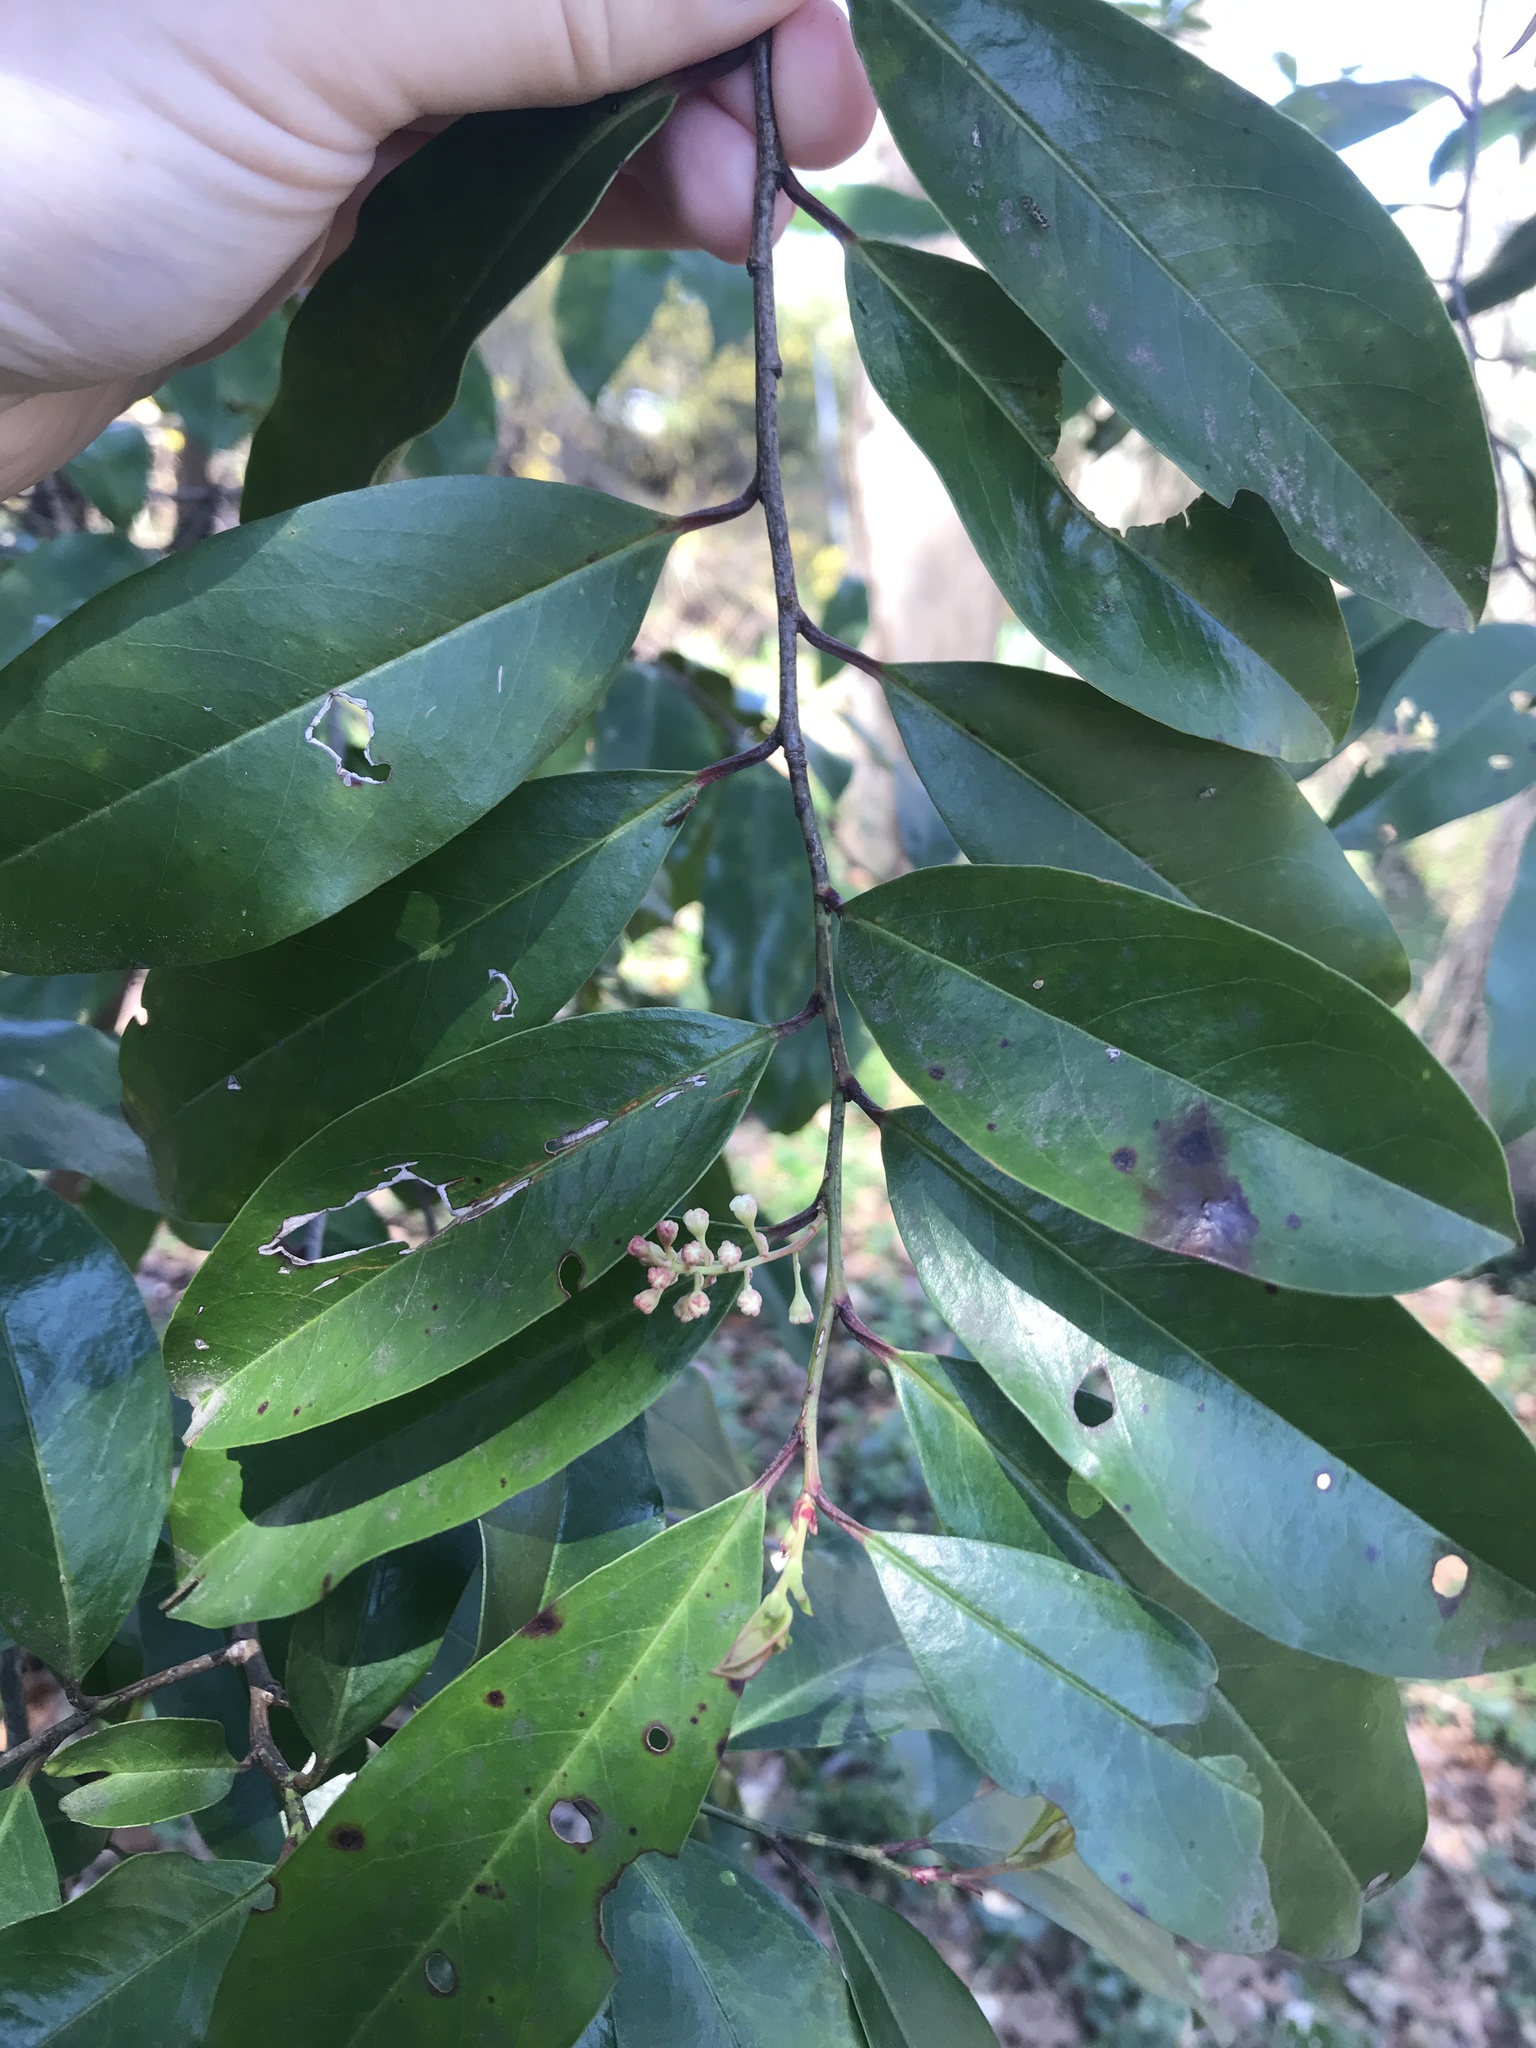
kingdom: Plantae
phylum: Tracheophyta
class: Magnoliopsida
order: Rosales
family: Rosaceae
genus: Prunus
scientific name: Prunus caroliniana
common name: Carolina laurel cherry
